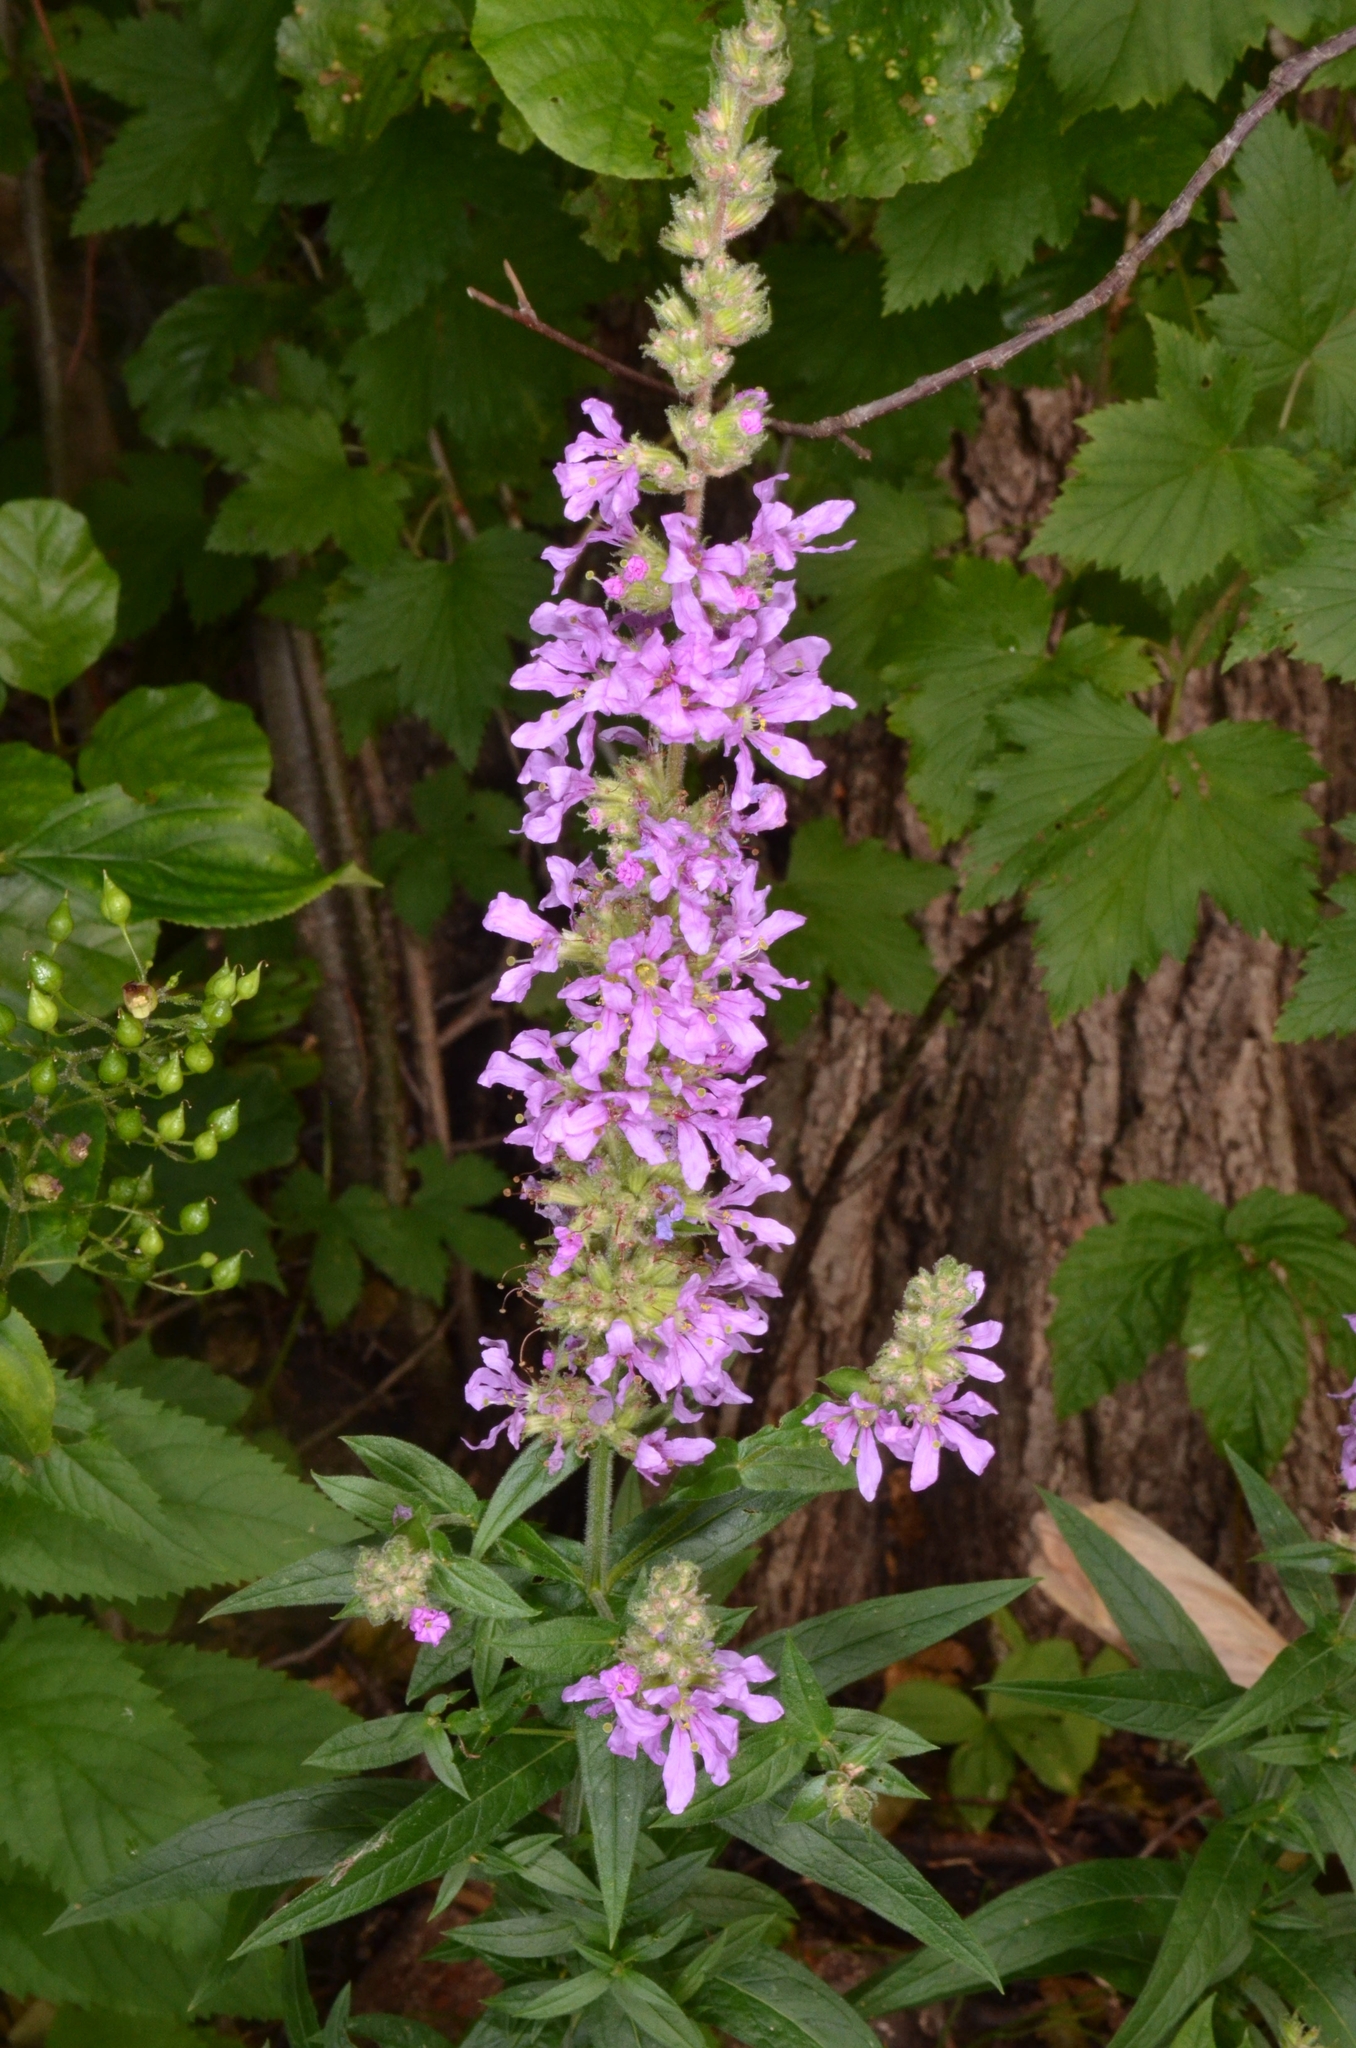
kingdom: Plantae
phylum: Tracheophyta
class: Magnoliopsida
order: Myrtales
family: Lythraceae
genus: Lythrum
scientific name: Lythrum salicaria
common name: Purple loosestrife
